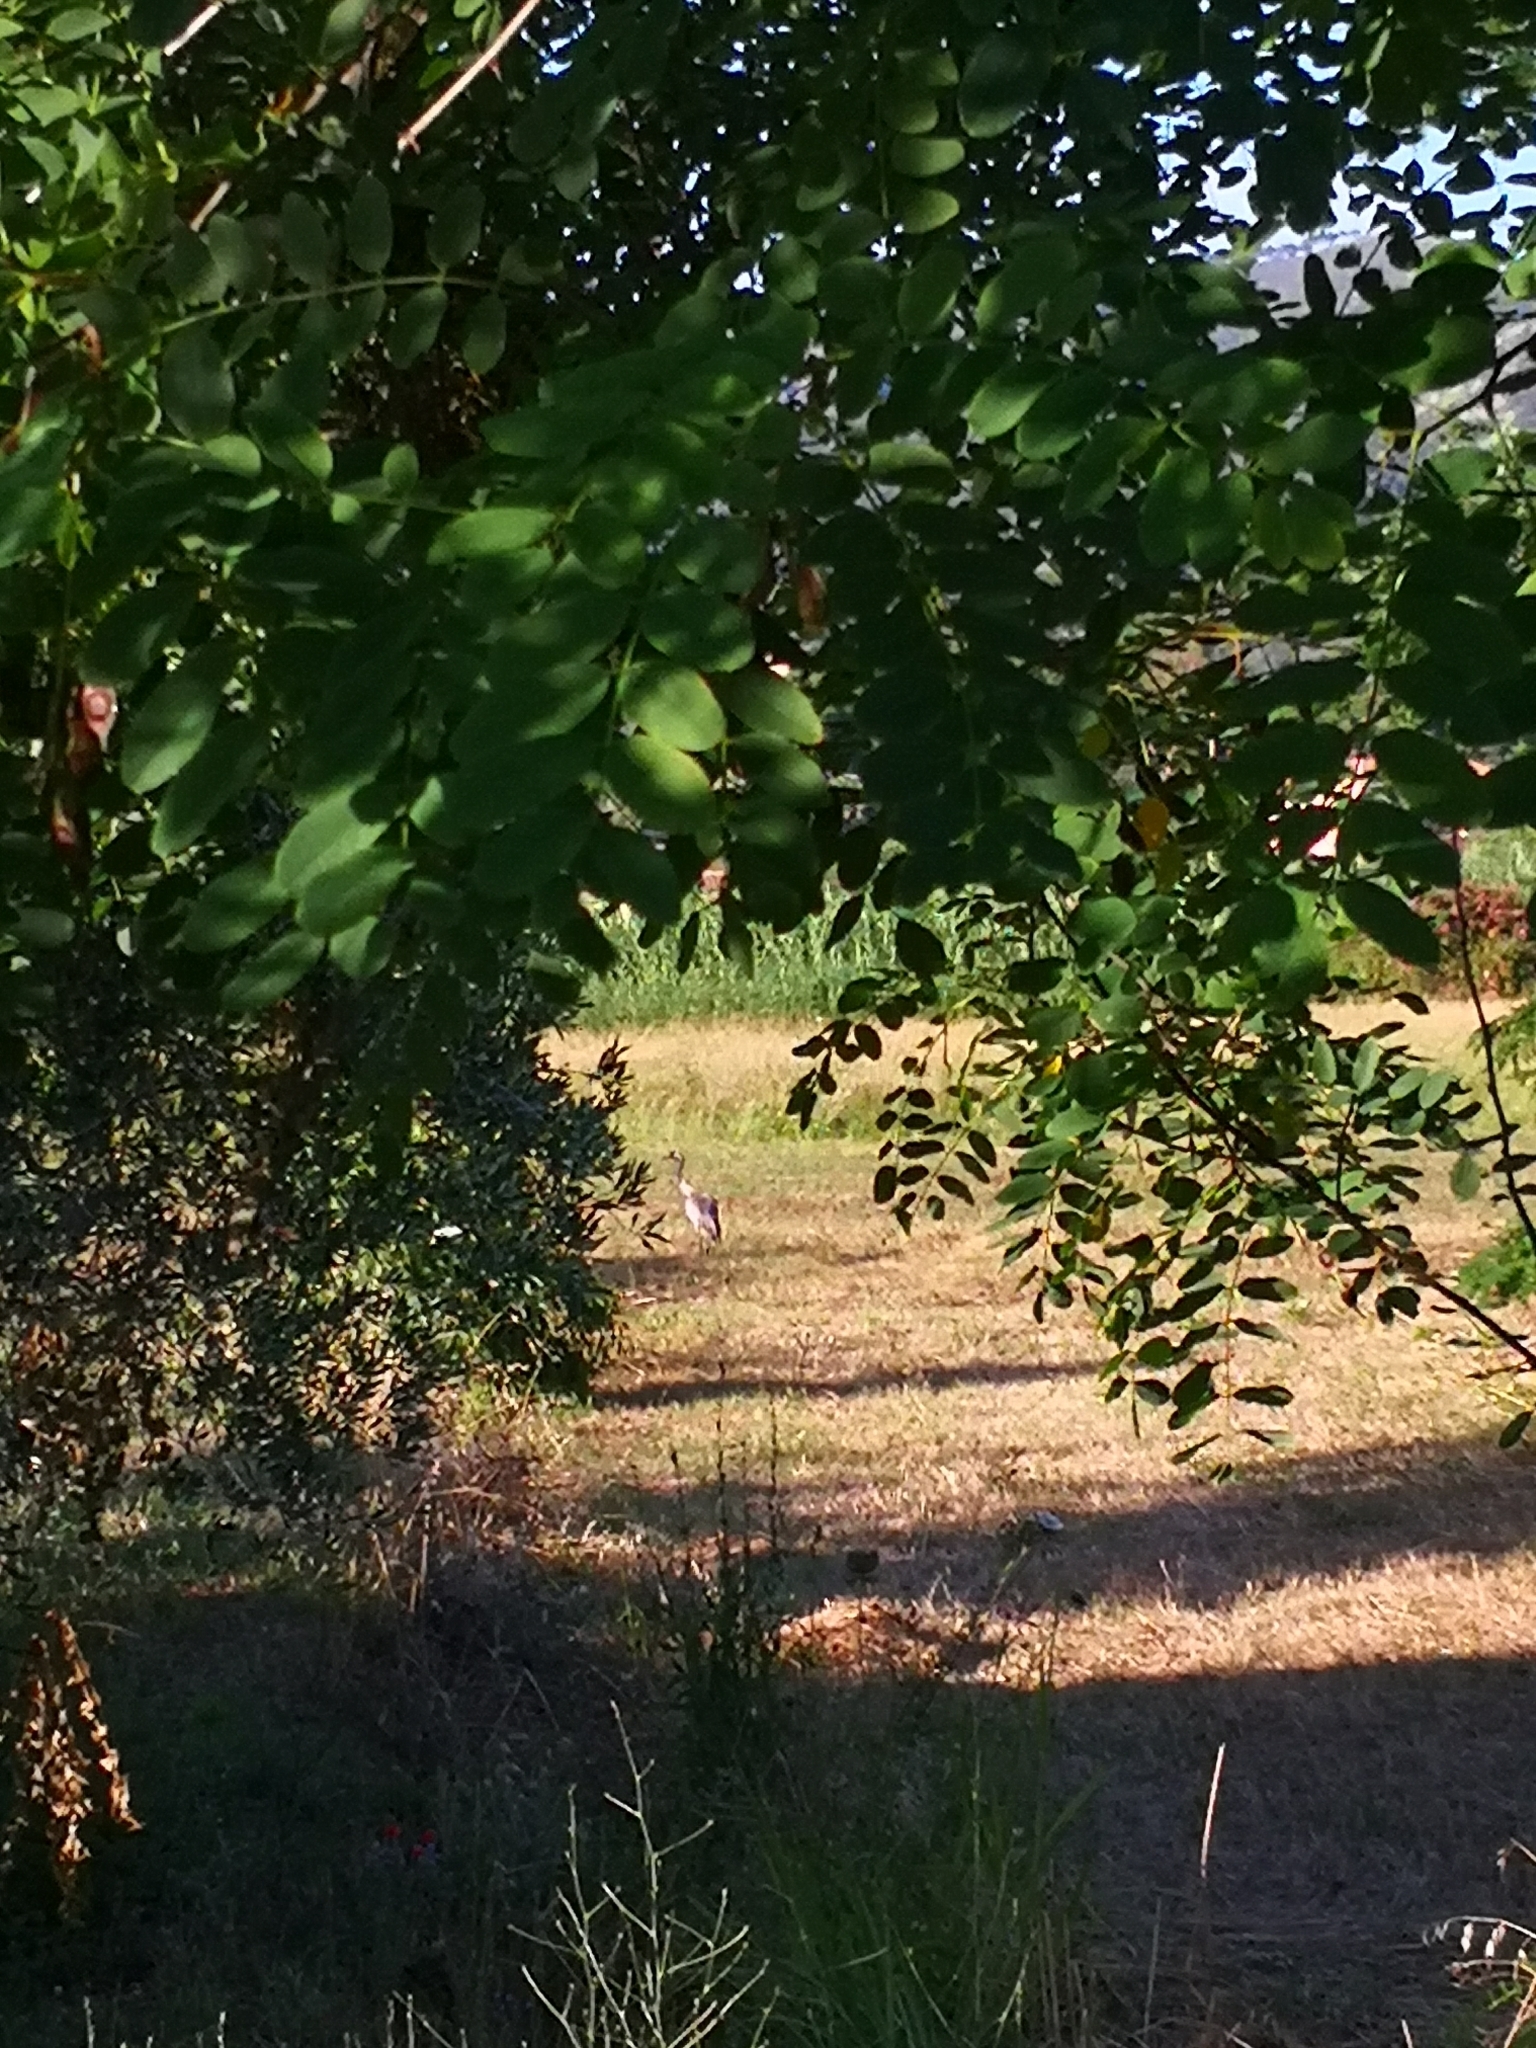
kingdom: Animalia
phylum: Chordata
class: Aves
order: Gruiformes
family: Gruidae
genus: Grus
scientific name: Grus grus
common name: Common crane
